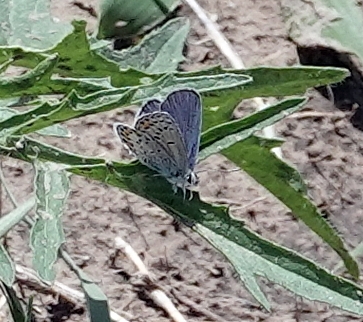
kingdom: Animalia
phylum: Arthropoda
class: Insecta
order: Lepidoptera
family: Lycaenidae
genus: Lycaeides
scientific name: Lycaeides melissa
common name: Melissa blue
